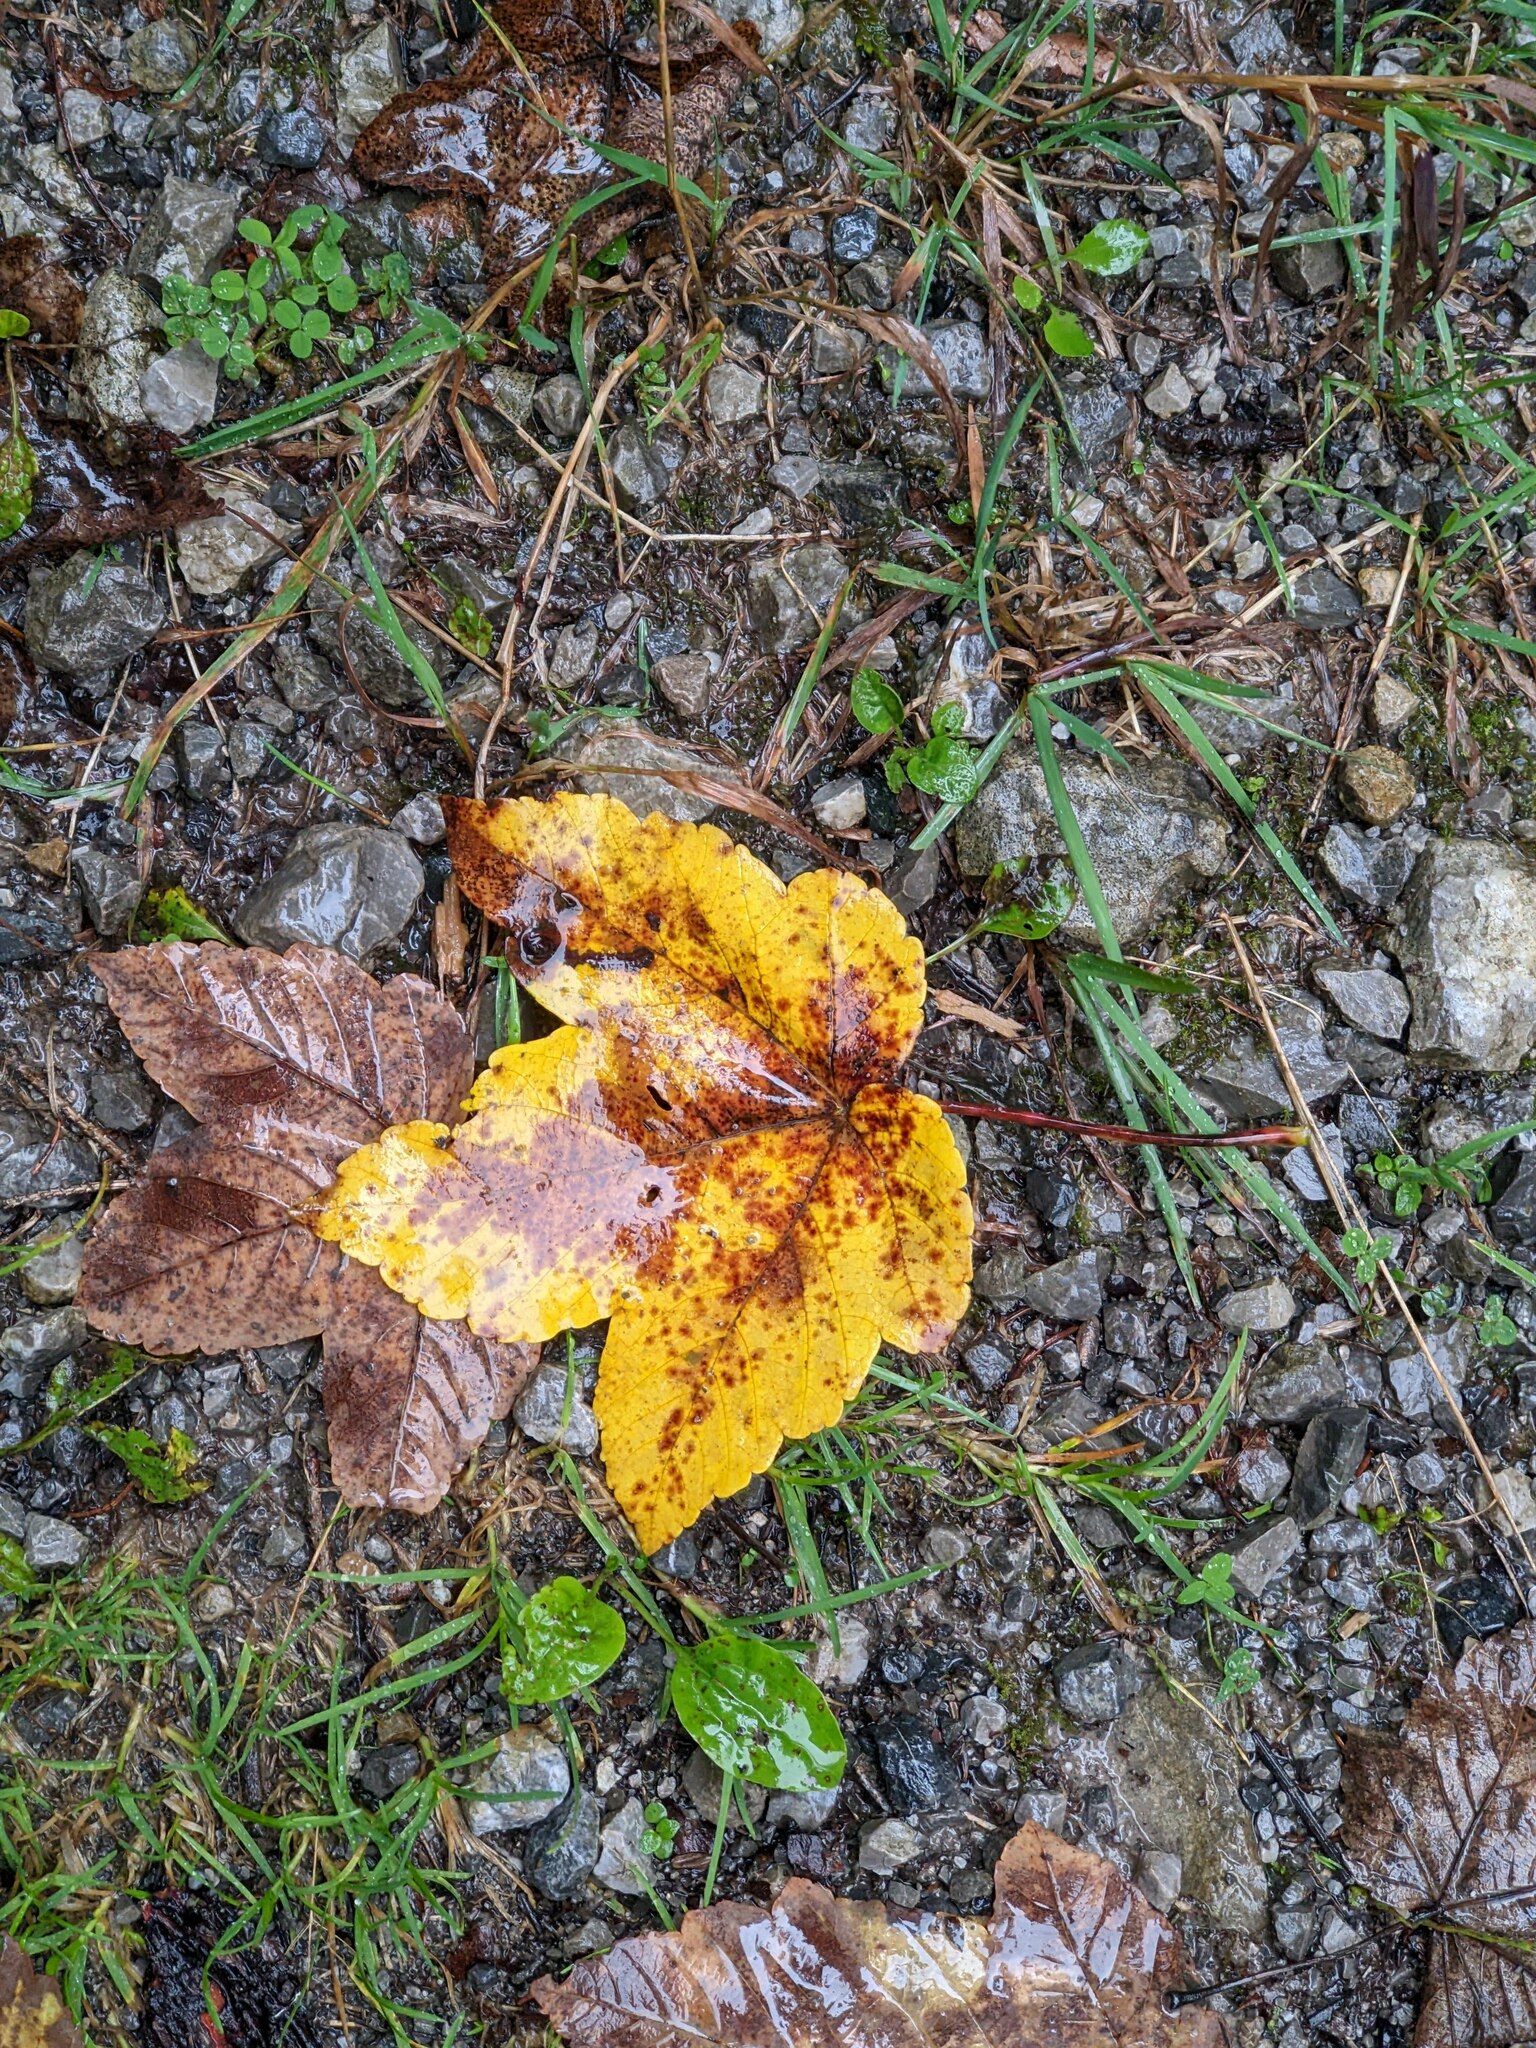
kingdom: Plantae
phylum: Tracheophyta
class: Magnoliopsida
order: Sapindales
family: Sapindaceae
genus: Acer
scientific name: Acer pseudoplatanus
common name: Sycamore
